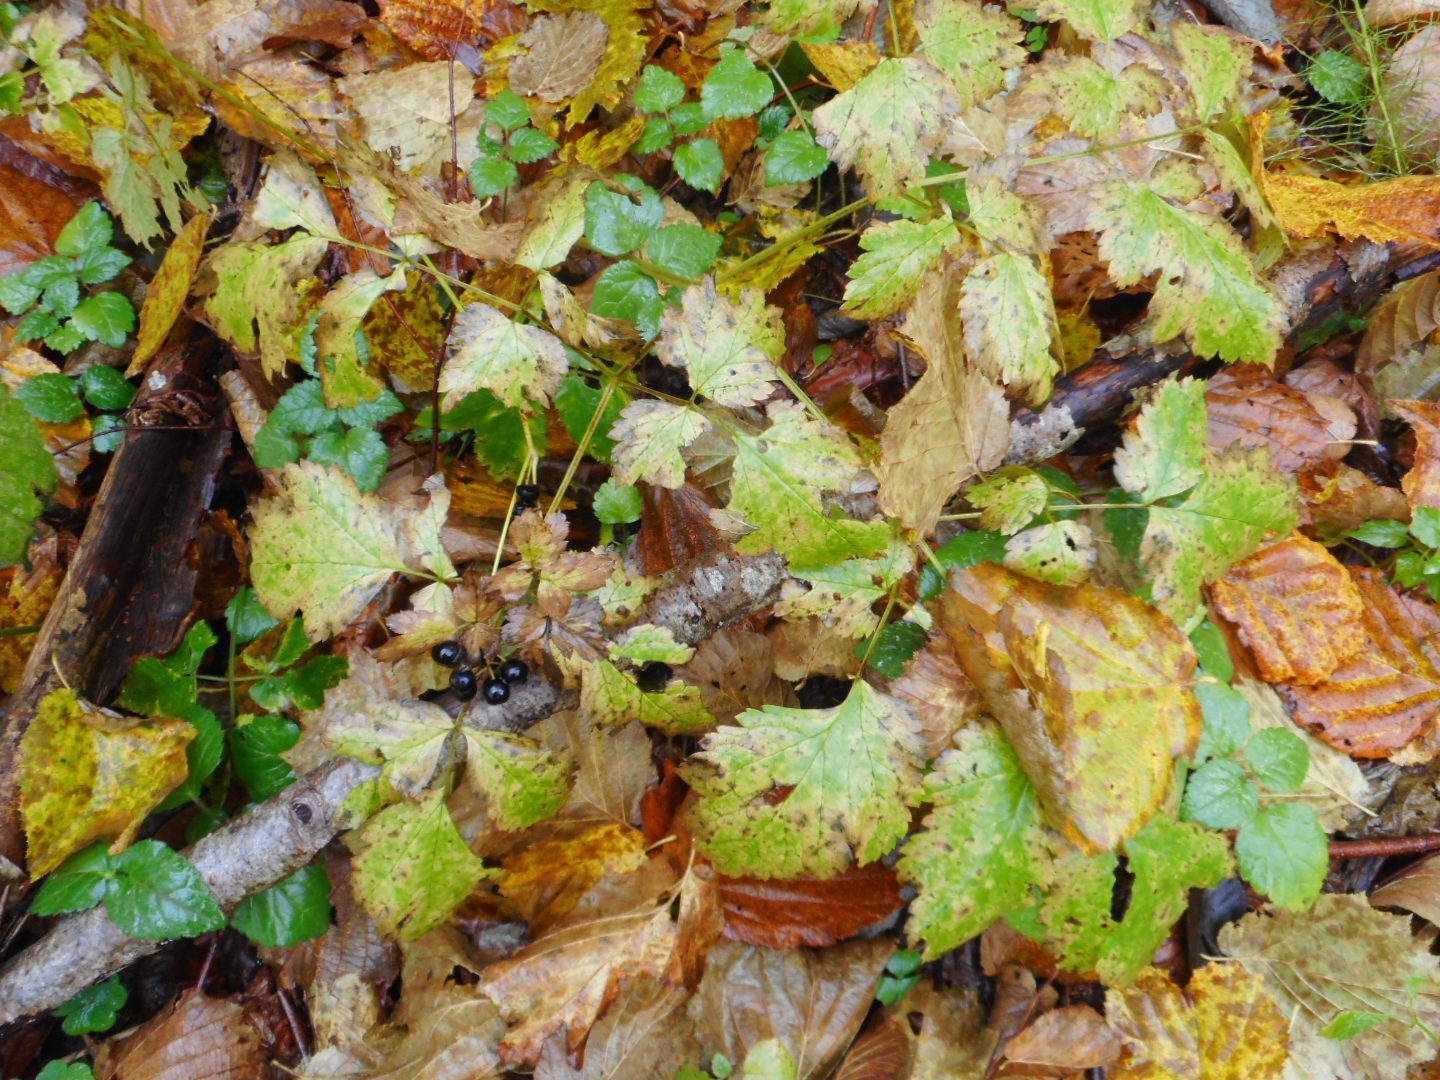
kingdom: Plantae
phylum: Tracheophyta
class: Magnoliopsida
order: Ranunculales
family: Ranunculaceae
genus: Actaea
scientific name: Actaea spicata
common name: Baneberry
